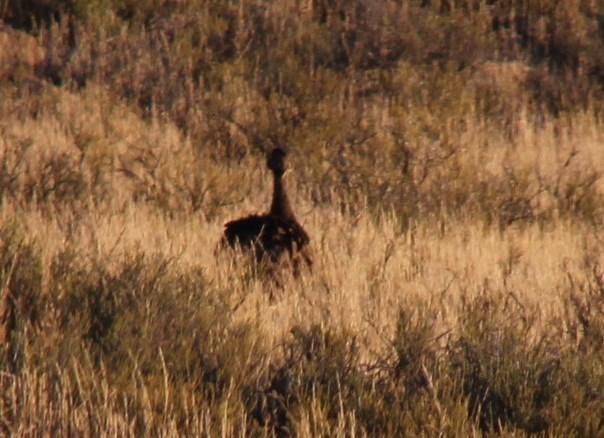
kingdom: Animalia
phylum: Chordata
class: Aves
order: Otidiformes
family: Otididae
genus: Eupodotis
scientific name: Eupodotis vigorsii
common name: Karoo korhaan
